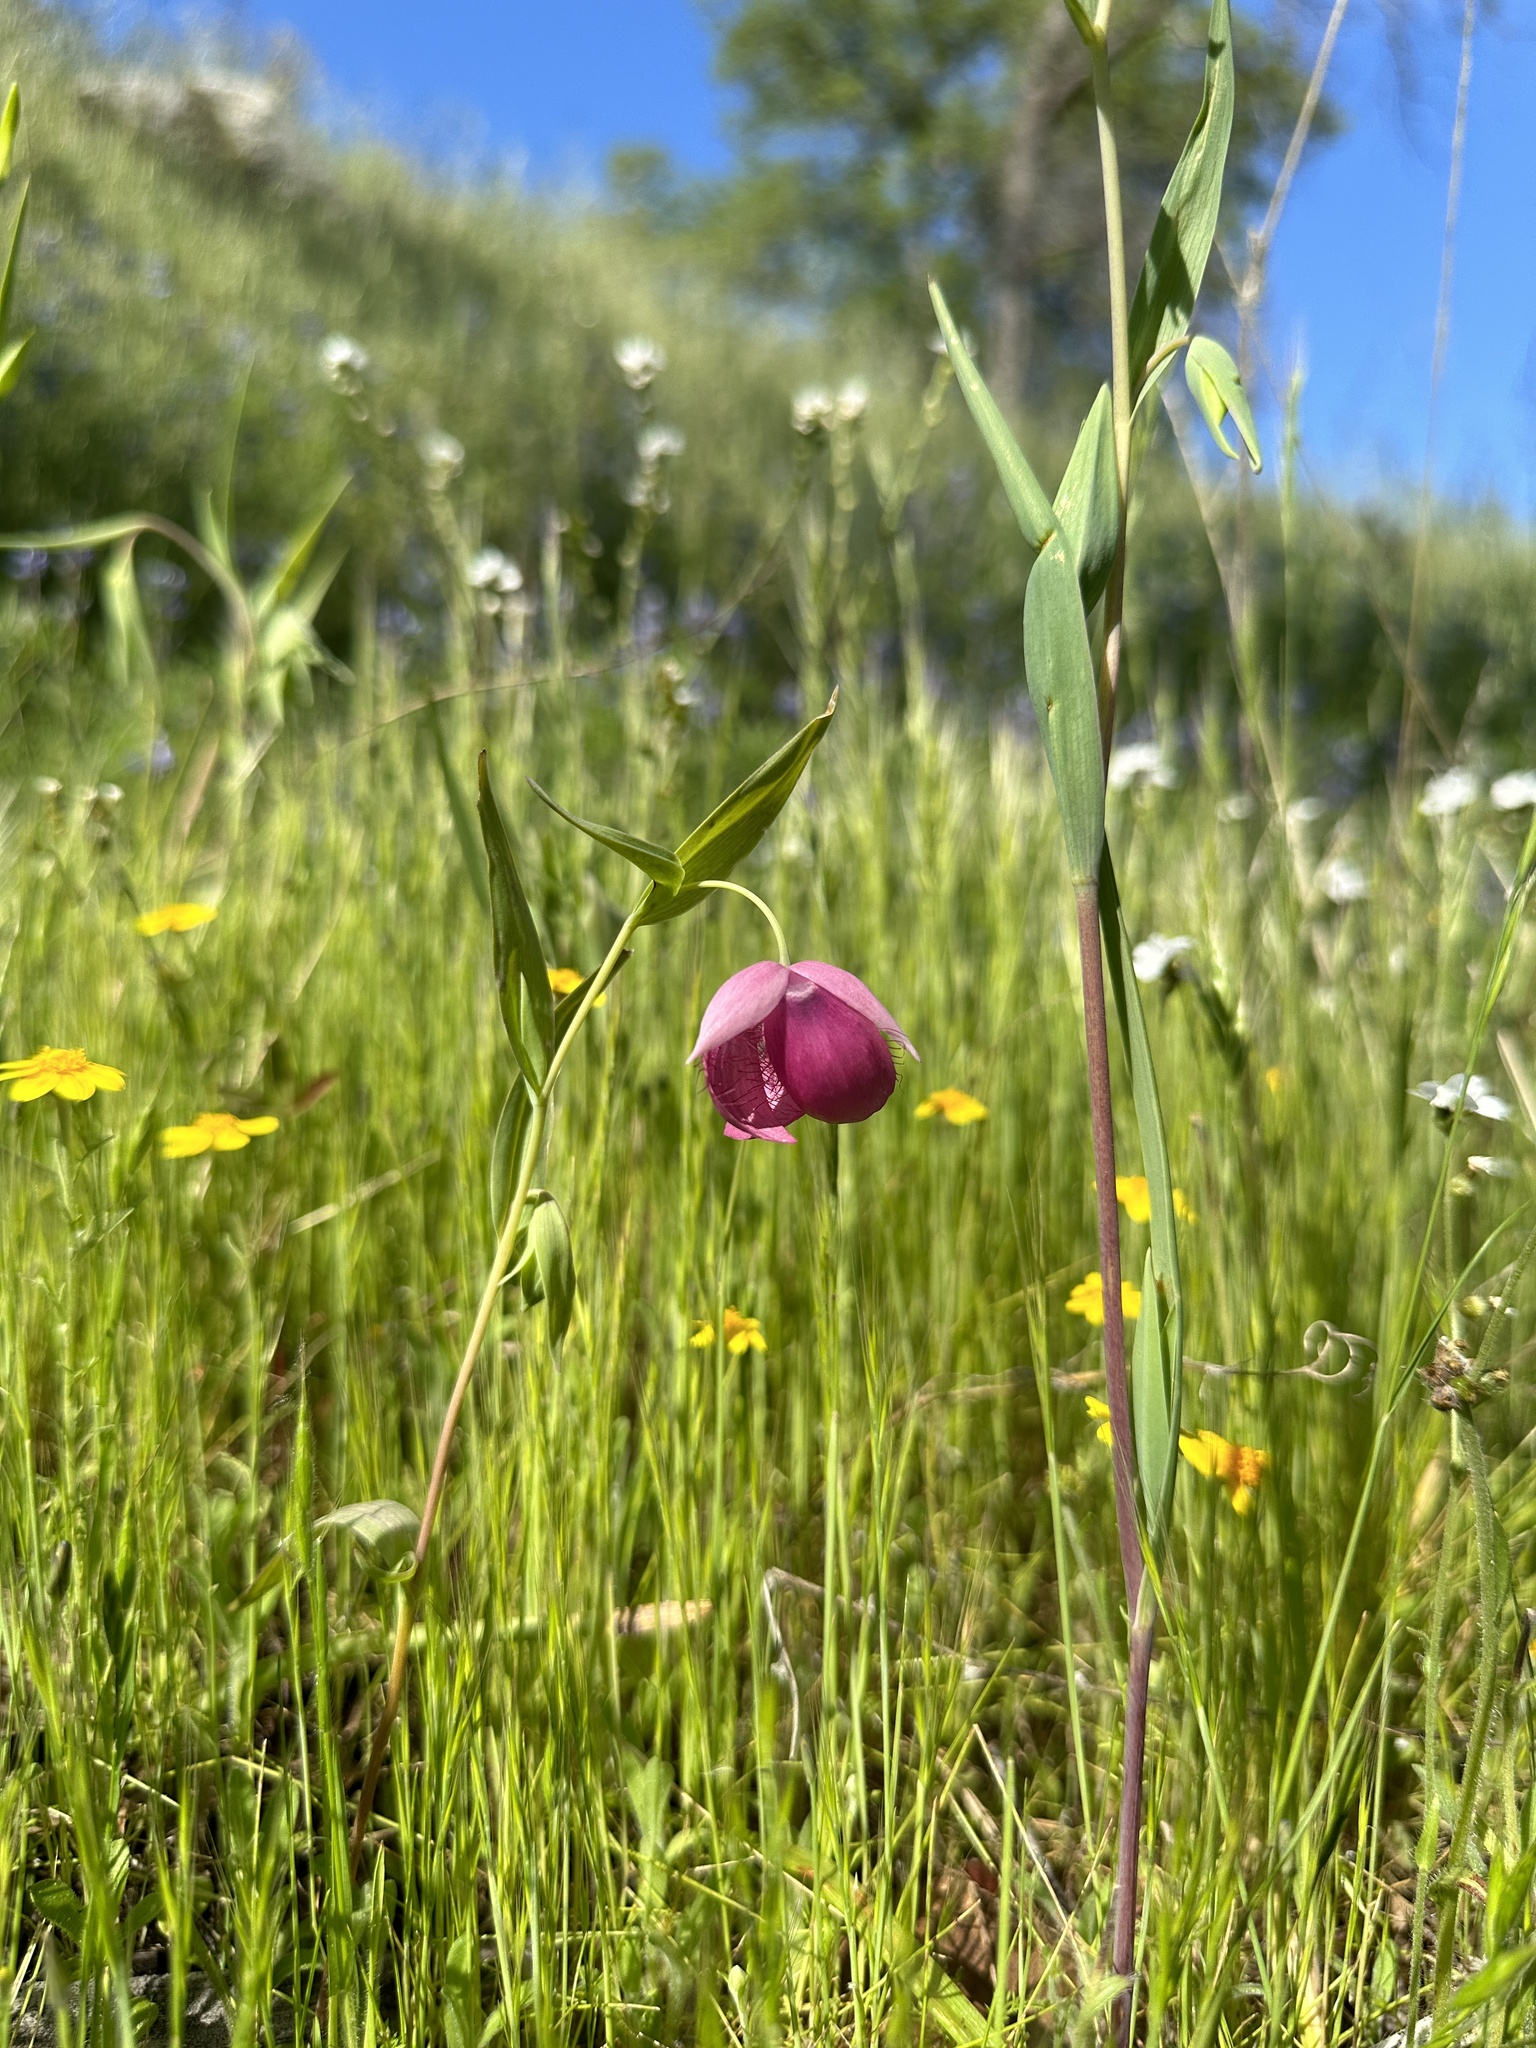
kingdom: Plantae
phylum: Tracheophyta
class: Liliopsida
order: Liliales
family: Liliaceae
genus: Calochortus
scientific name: Calochortus amoenus
